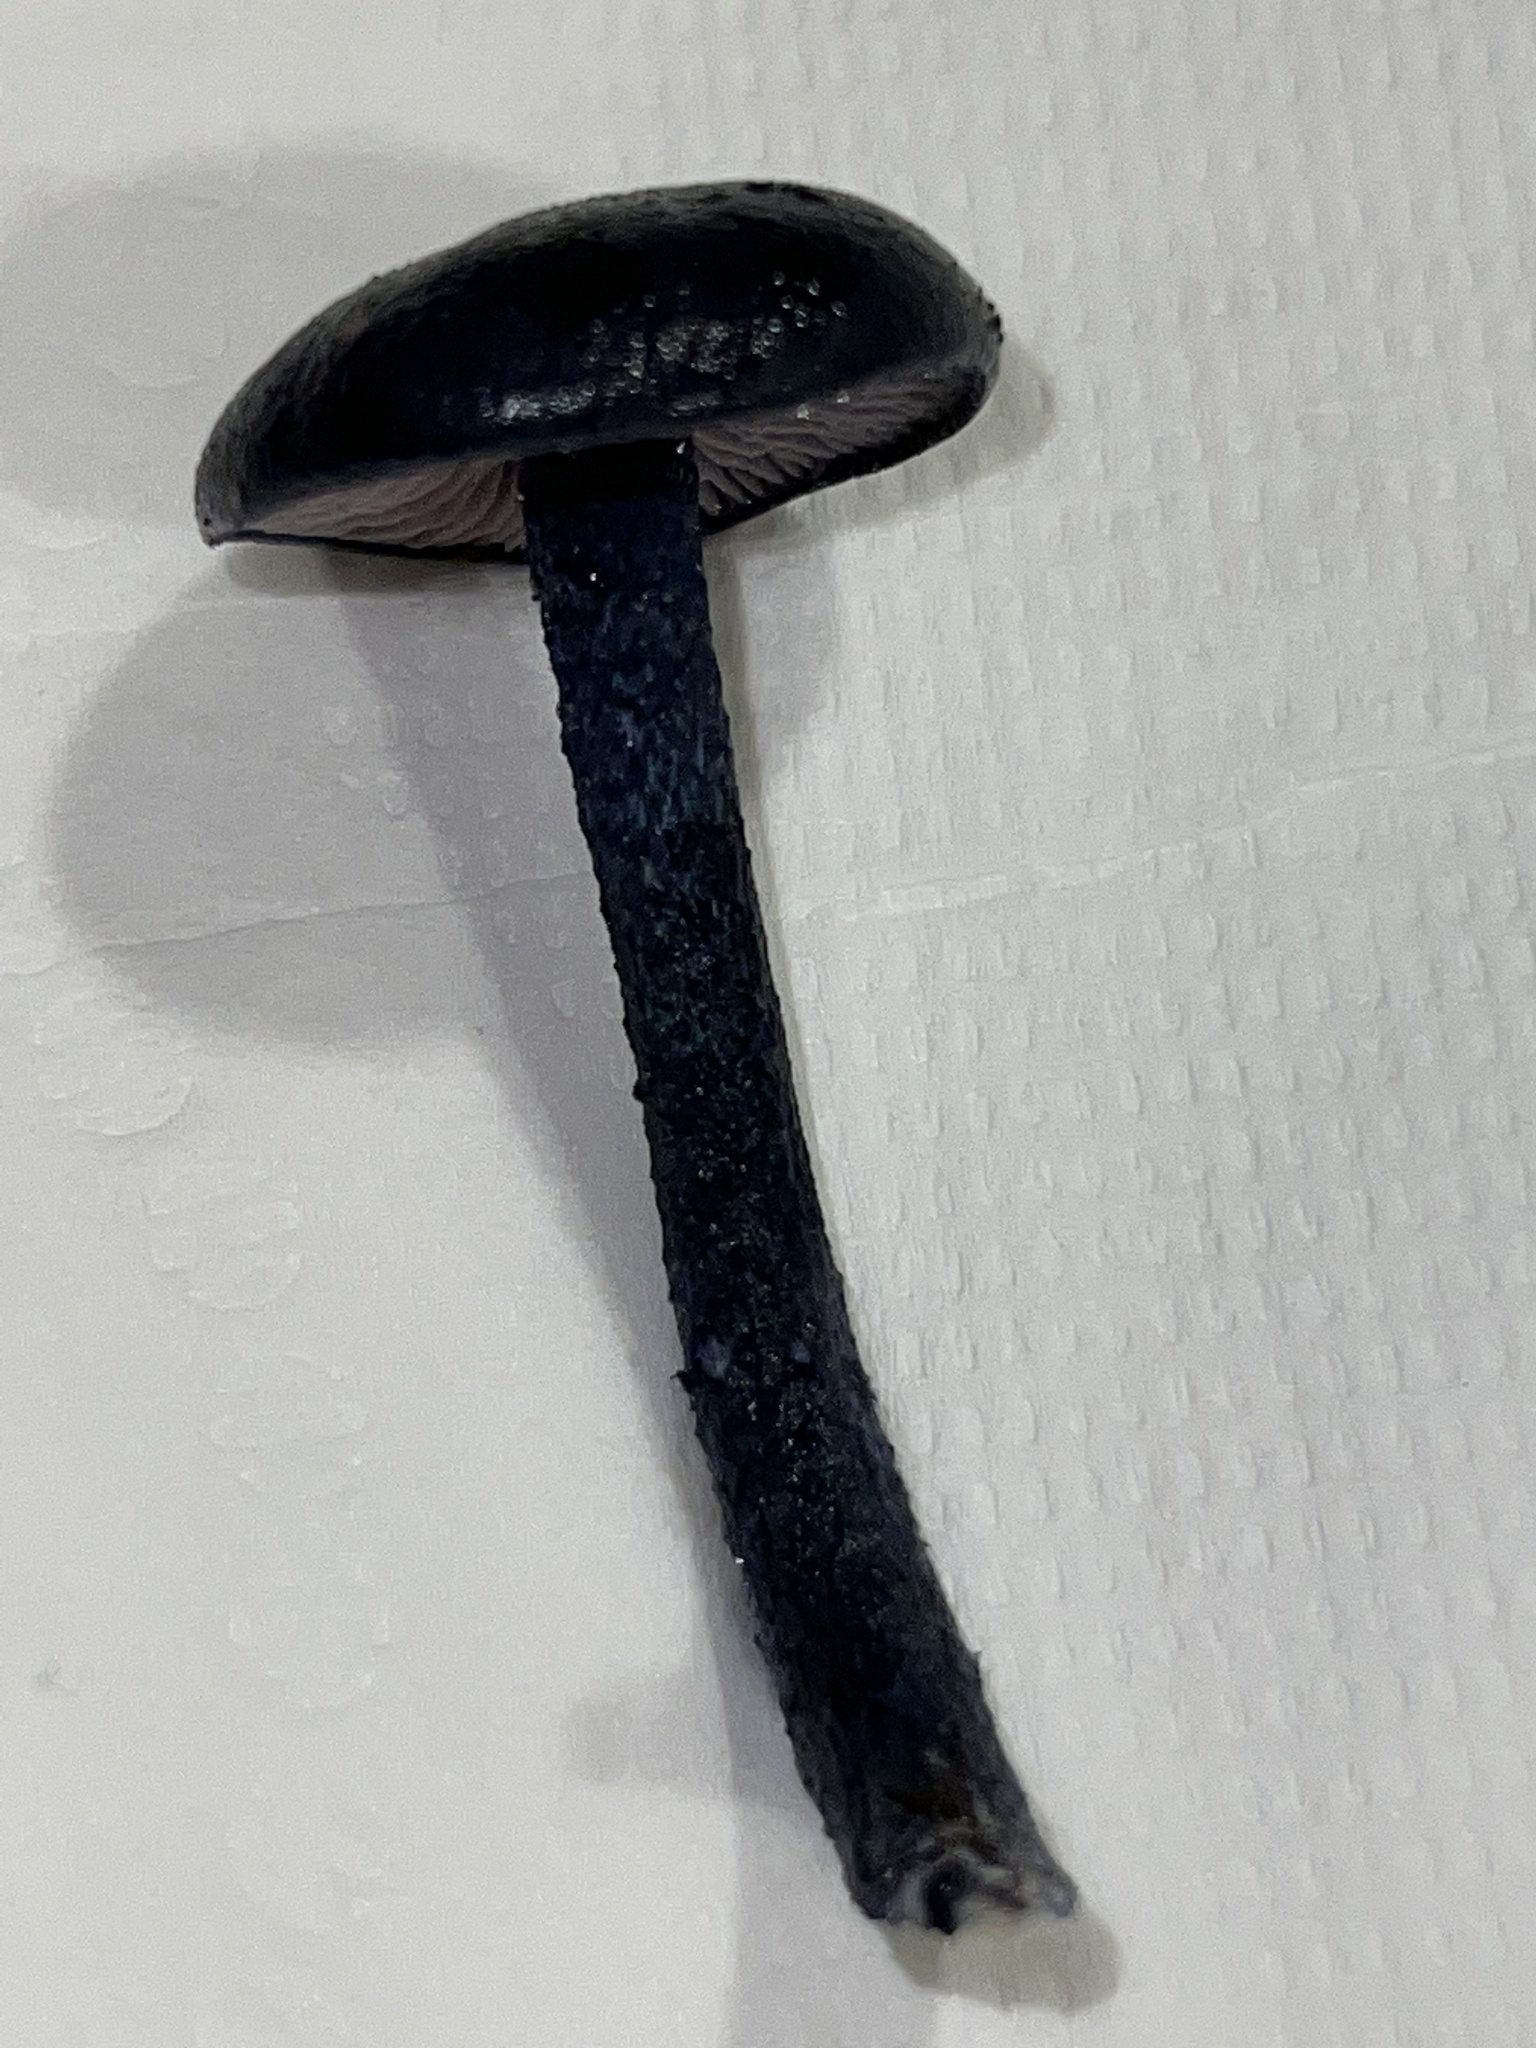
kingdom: Fungi
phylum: Basidiomycota
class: Agaricomycetes
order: Agaricales
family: Entolomataceae
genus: Entoloma
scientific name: Entoloma subcarneum
